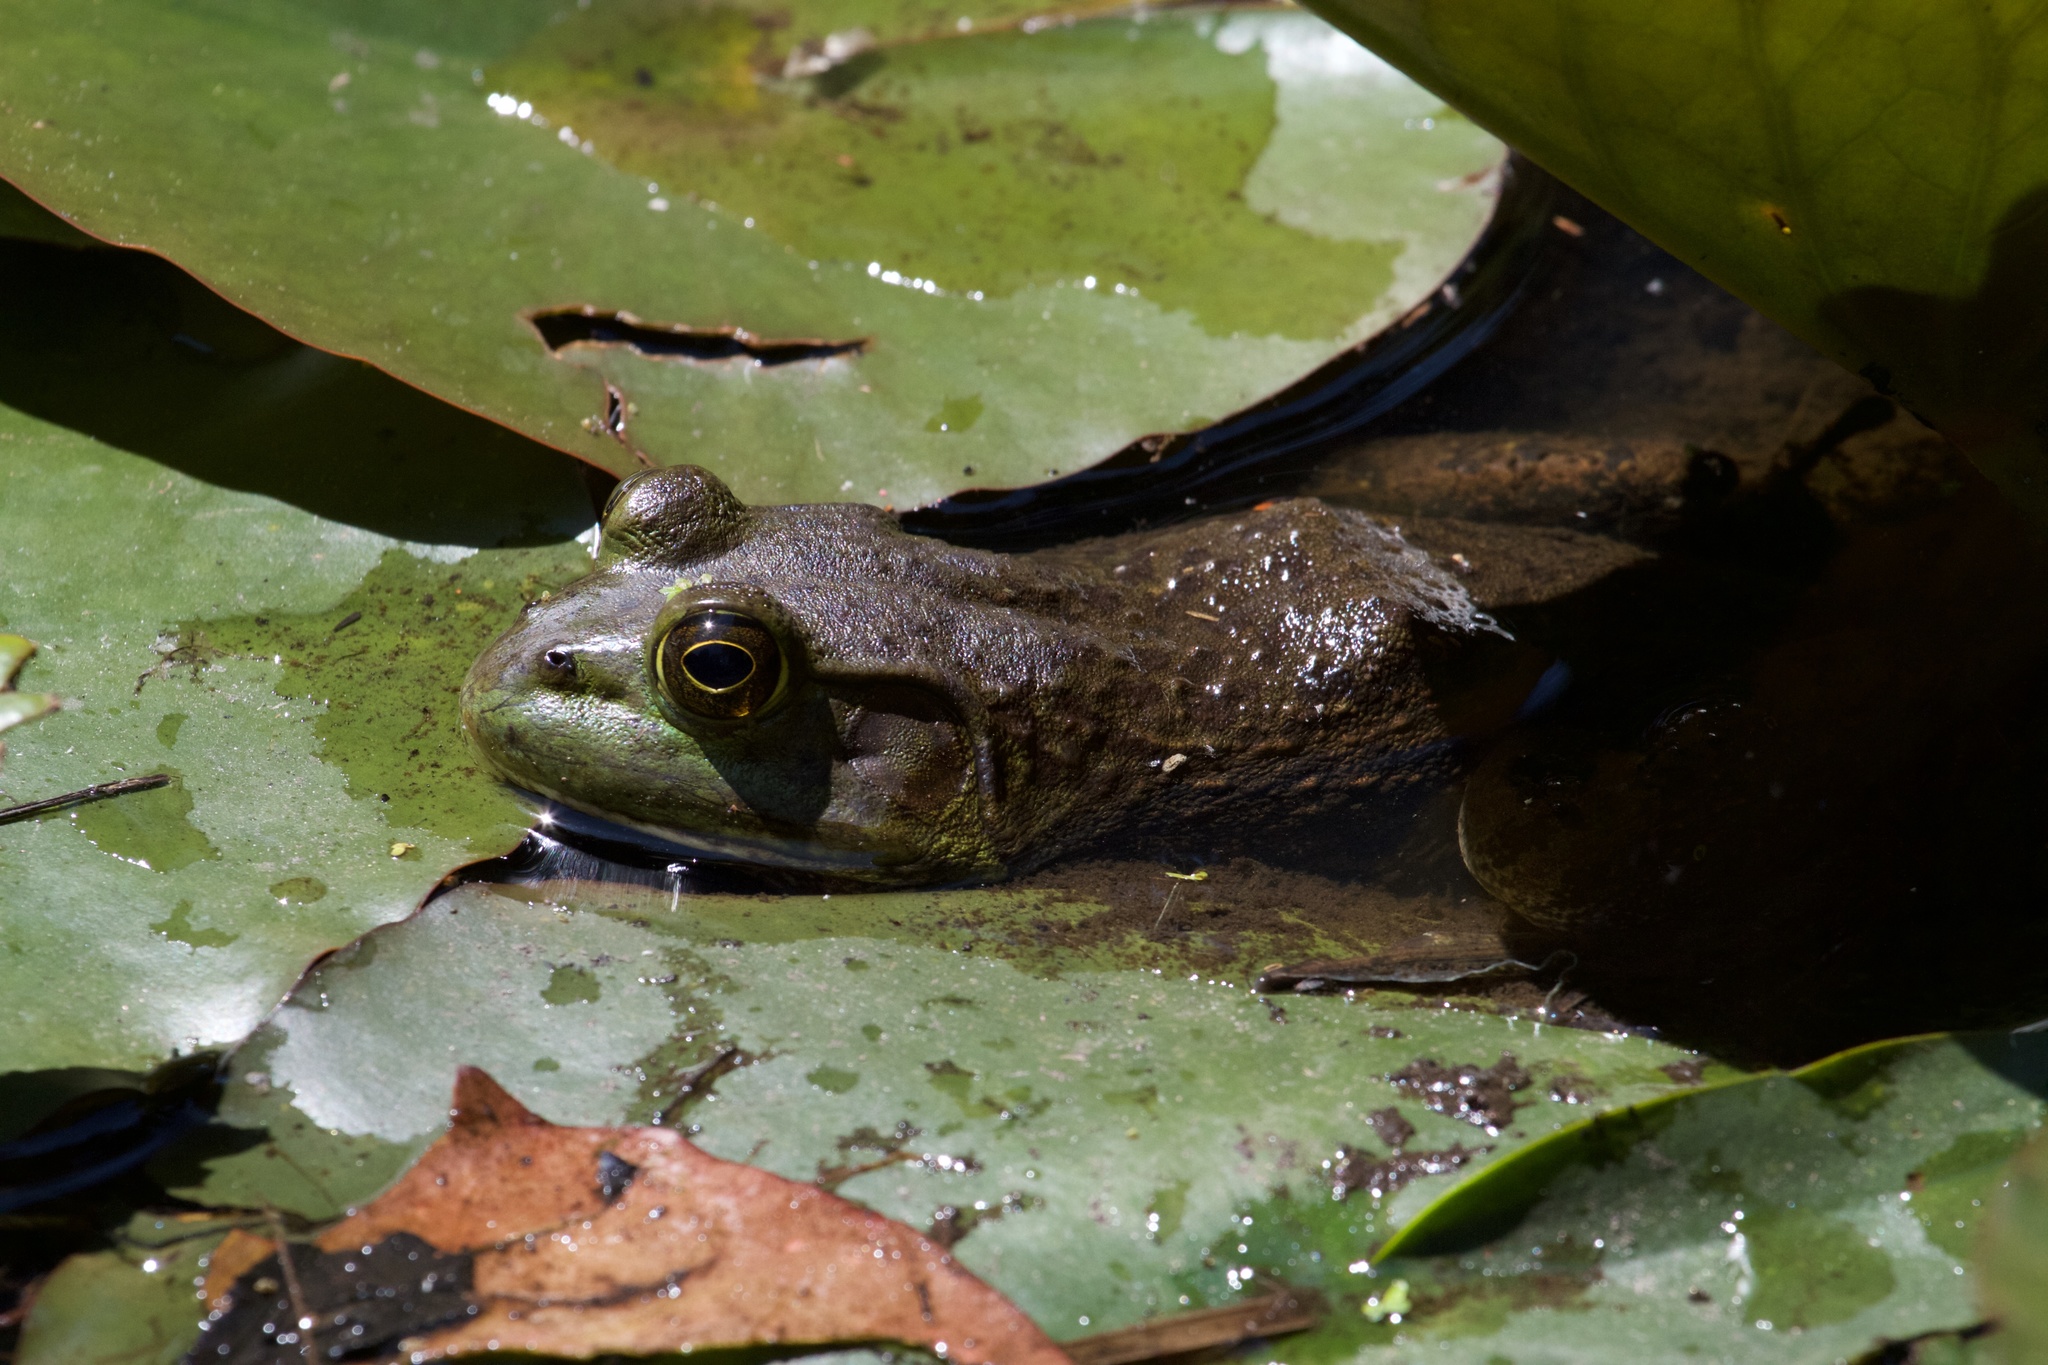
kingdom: Animalia
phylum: Chordata
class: Amphibia
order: Anura
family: Ranidae
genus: Lithobates
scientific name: Lithobates catesbeianus
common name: American bullfrog
